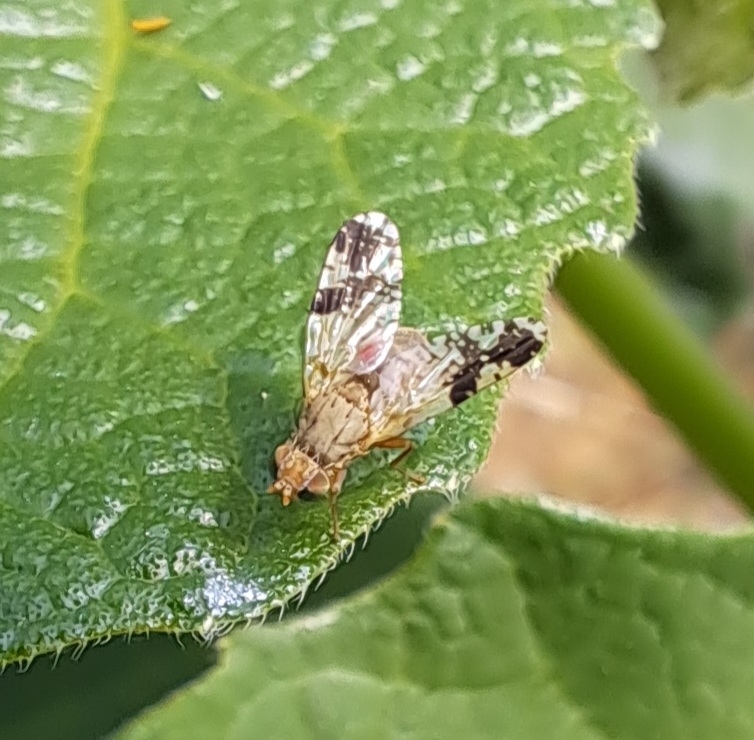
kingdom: Animalia
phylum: Arthropoda
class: Insecta
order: Diptera
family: Tephritidae
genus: Tephritis
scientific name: Tephritis bardanae
